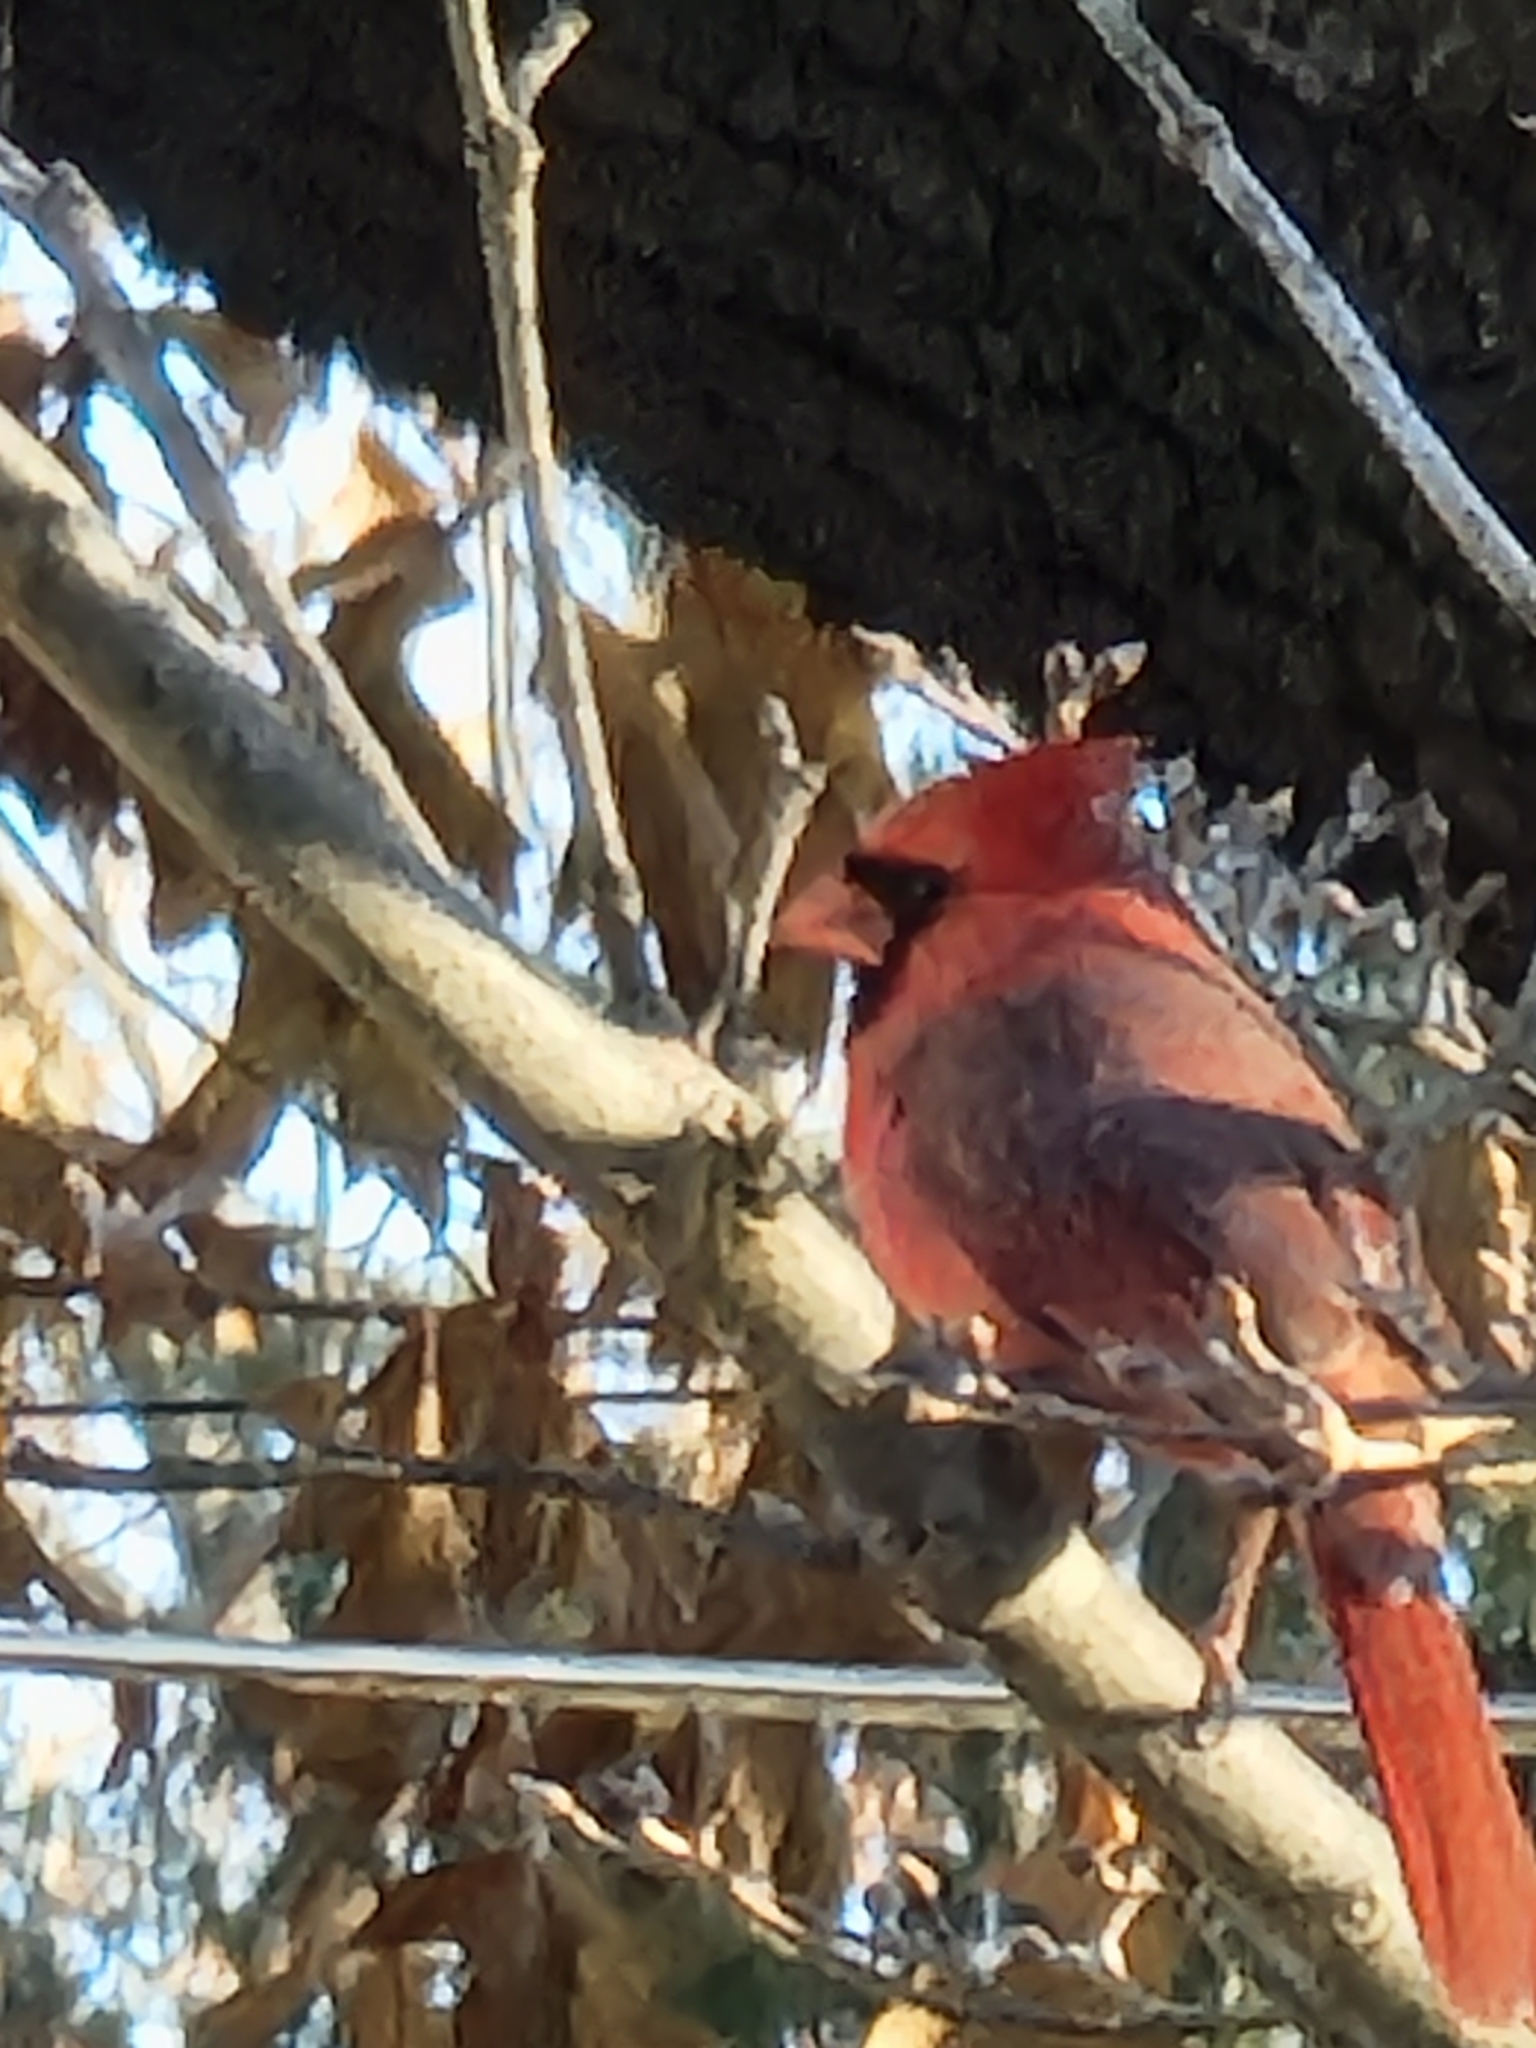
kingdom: Animalia
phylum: Chordata
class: Aves
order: Passeriformes
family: Cardinalidae
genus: Cardinalis
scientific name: Cardinalis cardinalis
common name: Northern cardinal
